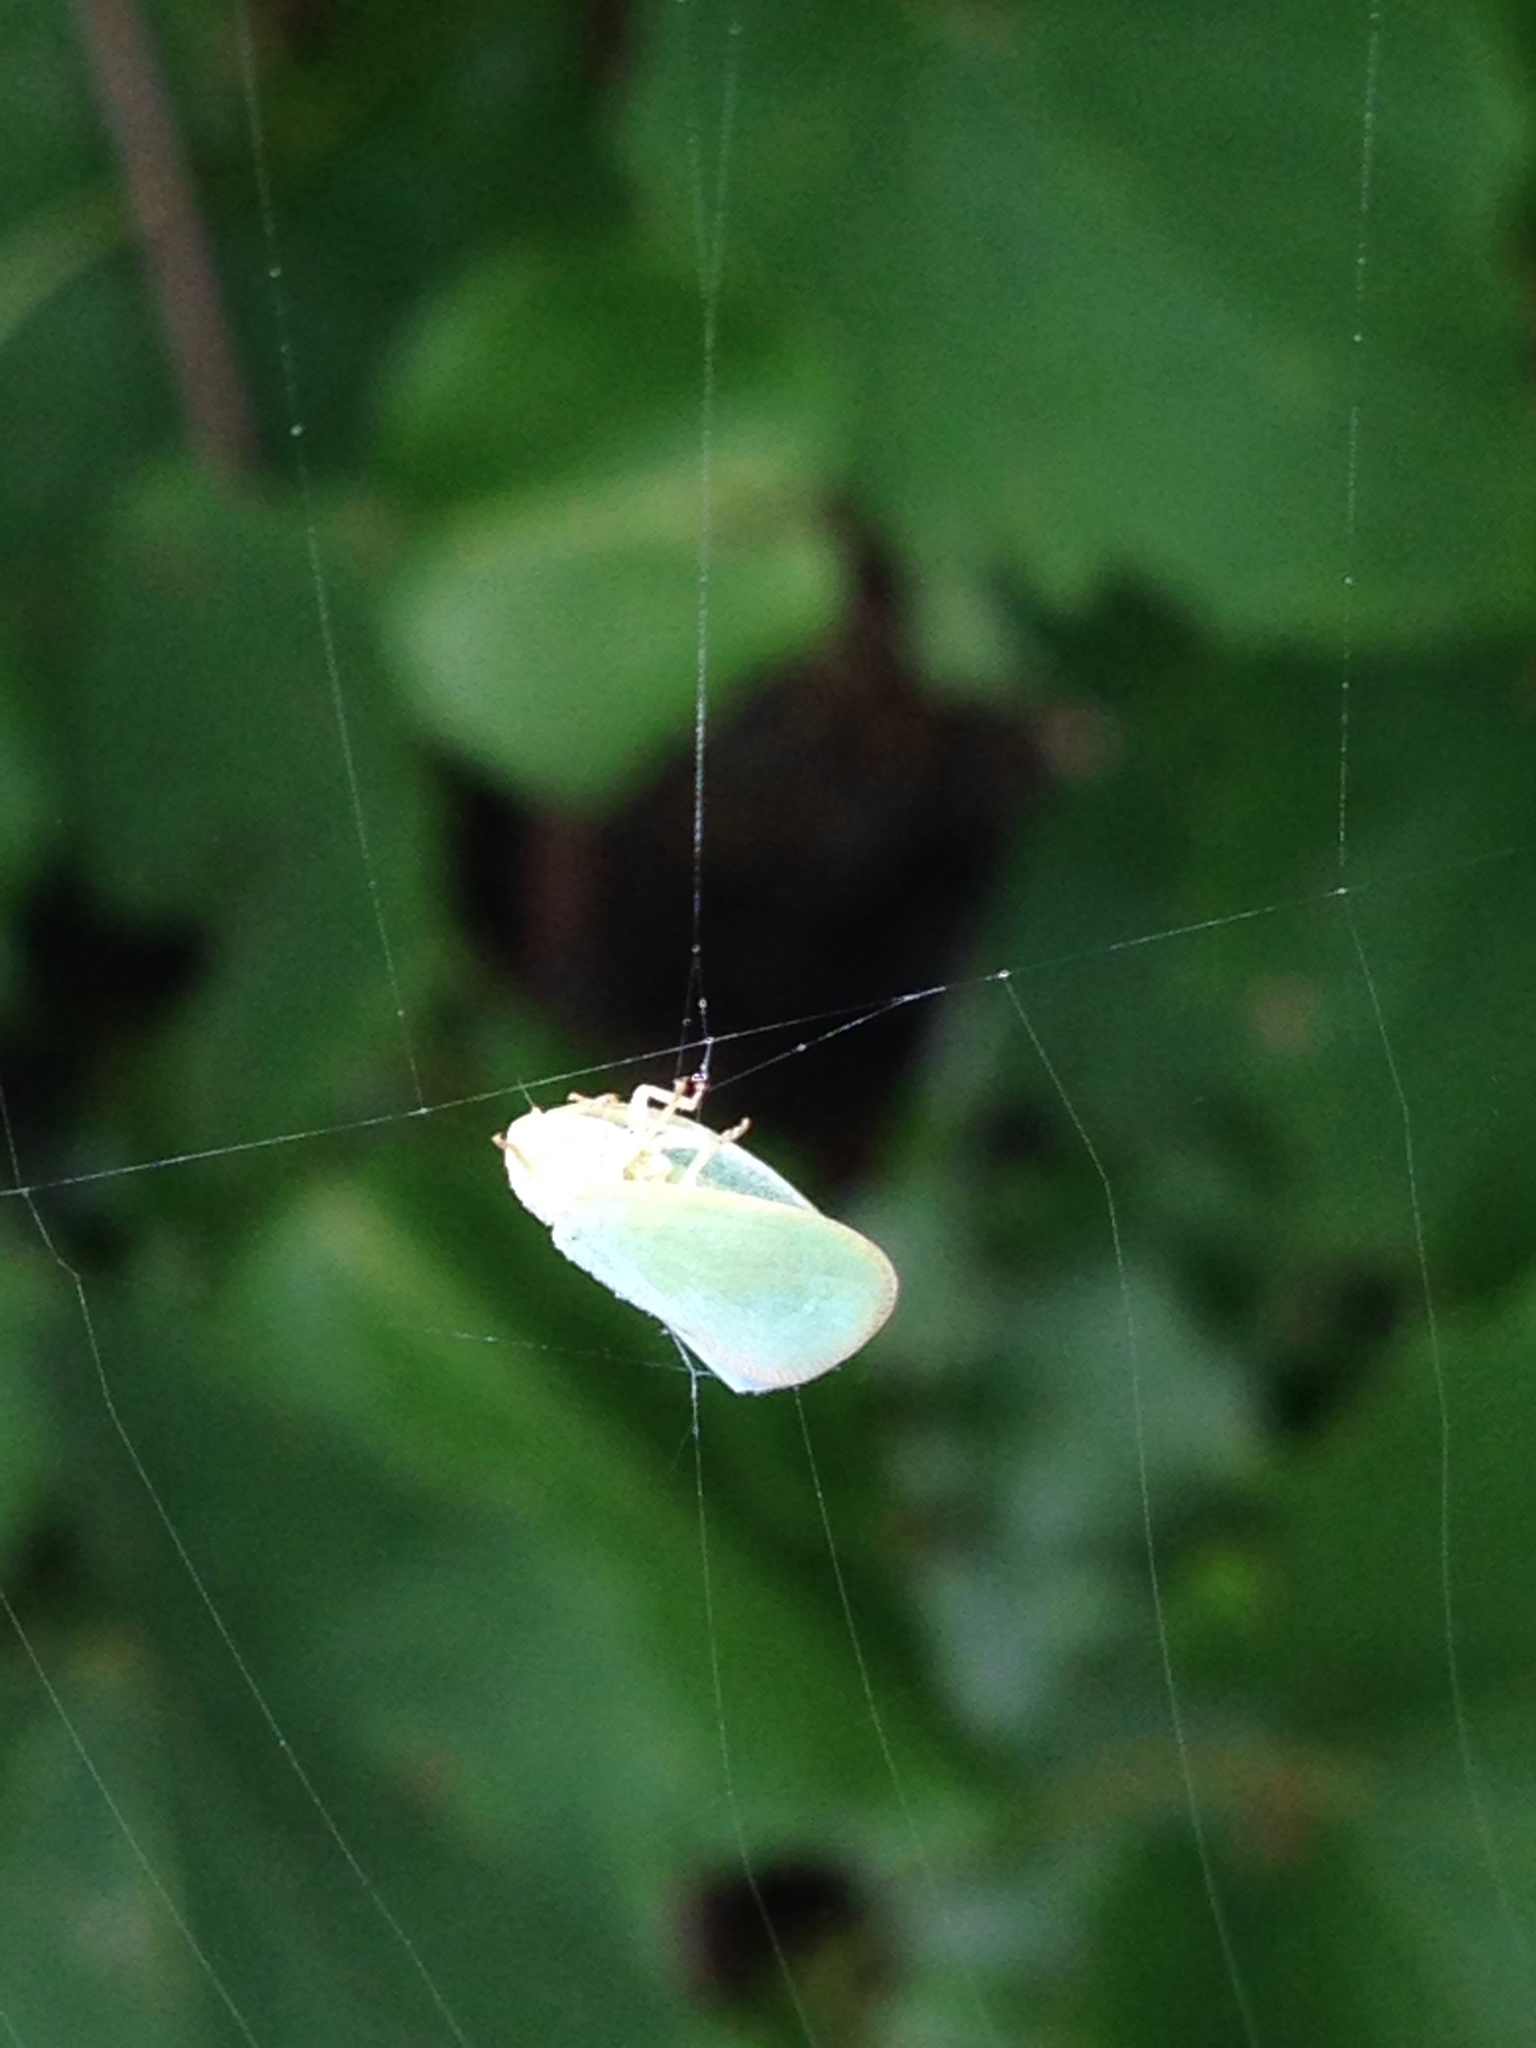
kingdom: Animalia
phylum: Arthropoda
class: Insecta
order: Hemiptera
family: Flatidae
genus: Ormenoides
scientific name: Ormenoides venusta
